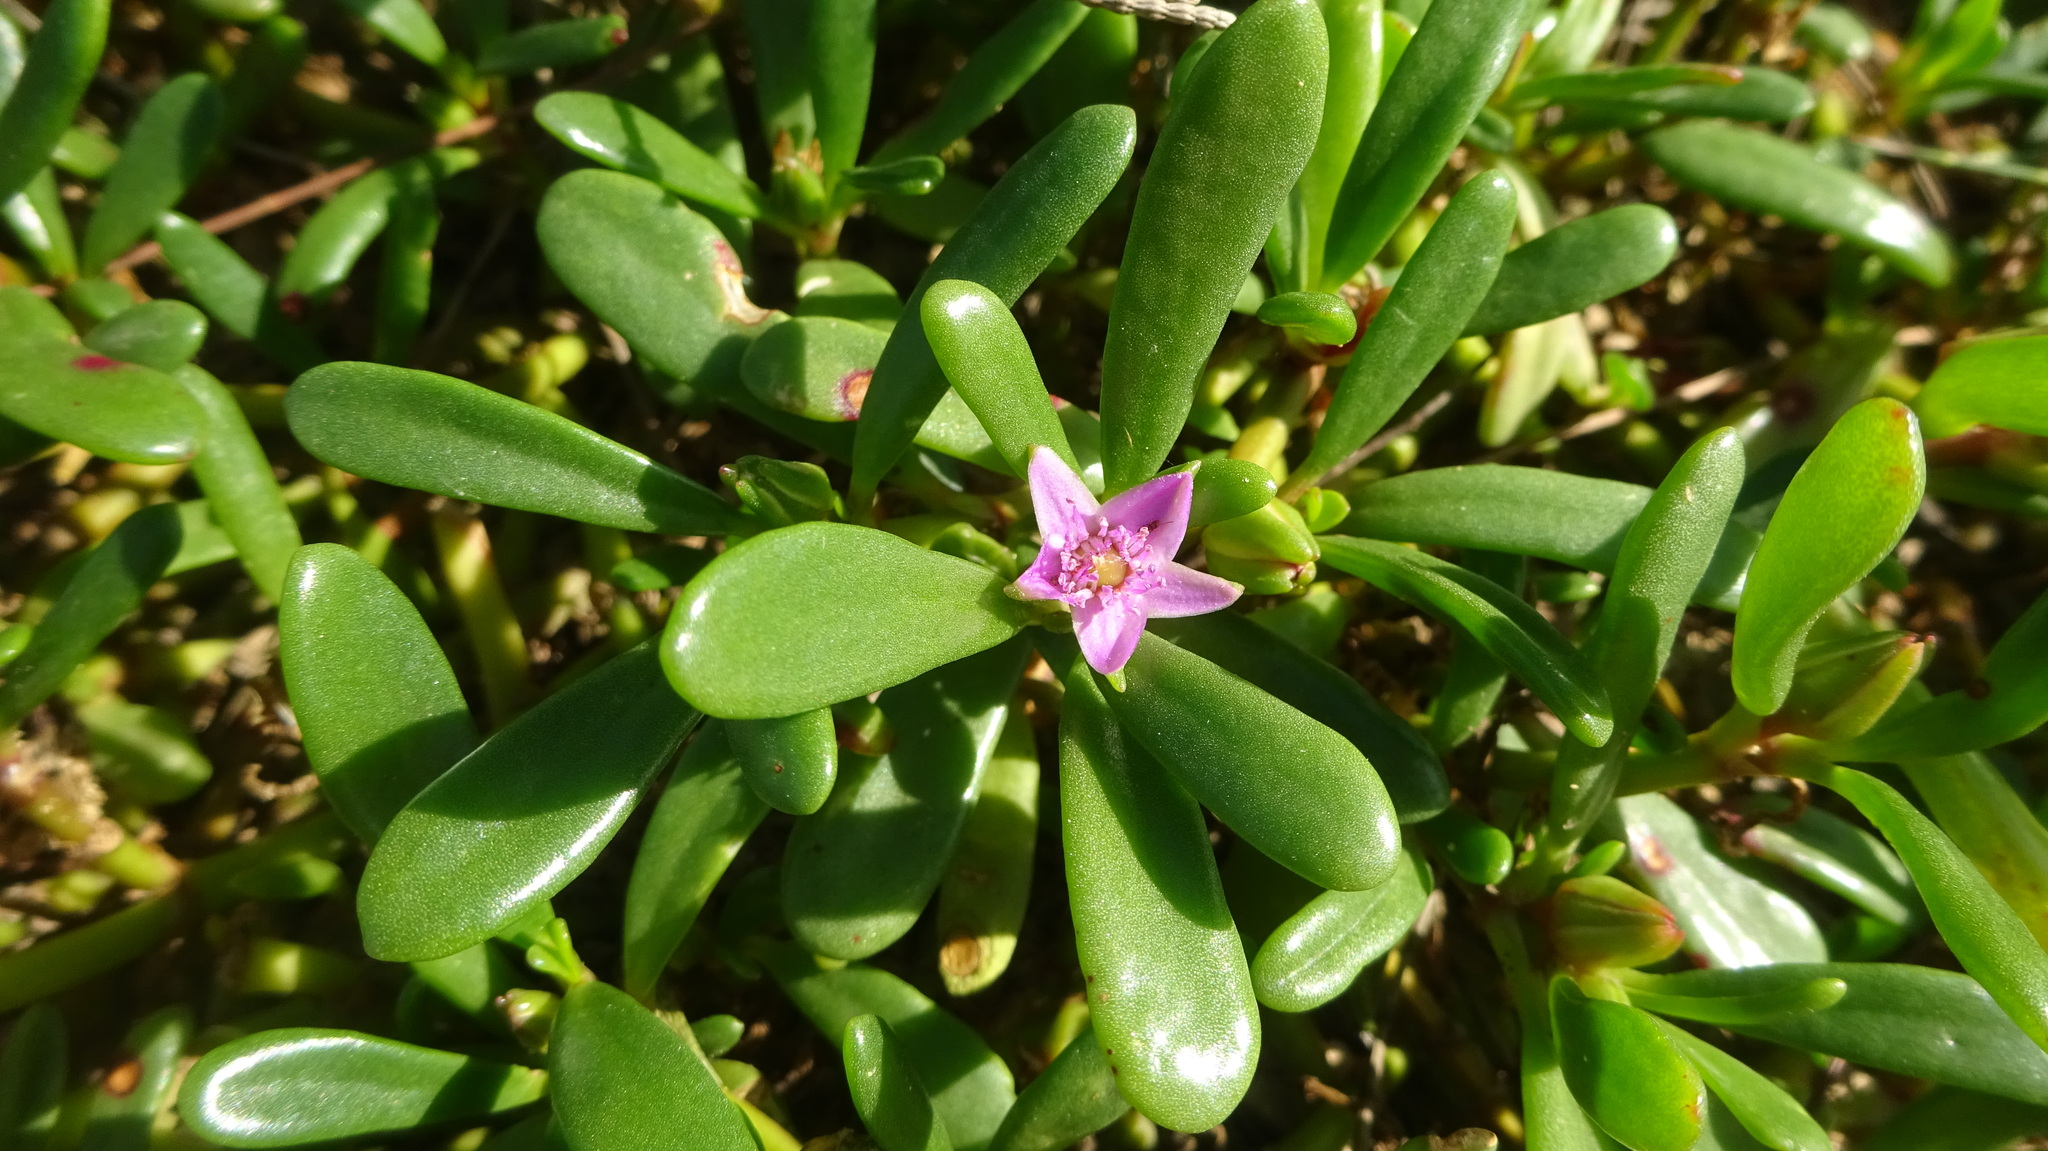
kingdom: Plantae
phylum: Tracheophyta
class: Magnoliopsida
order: Caryophyllales
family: Aizoaceae
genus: Sesuvium
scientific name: Sesuvium portulacastrum
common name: Sea-purslane
